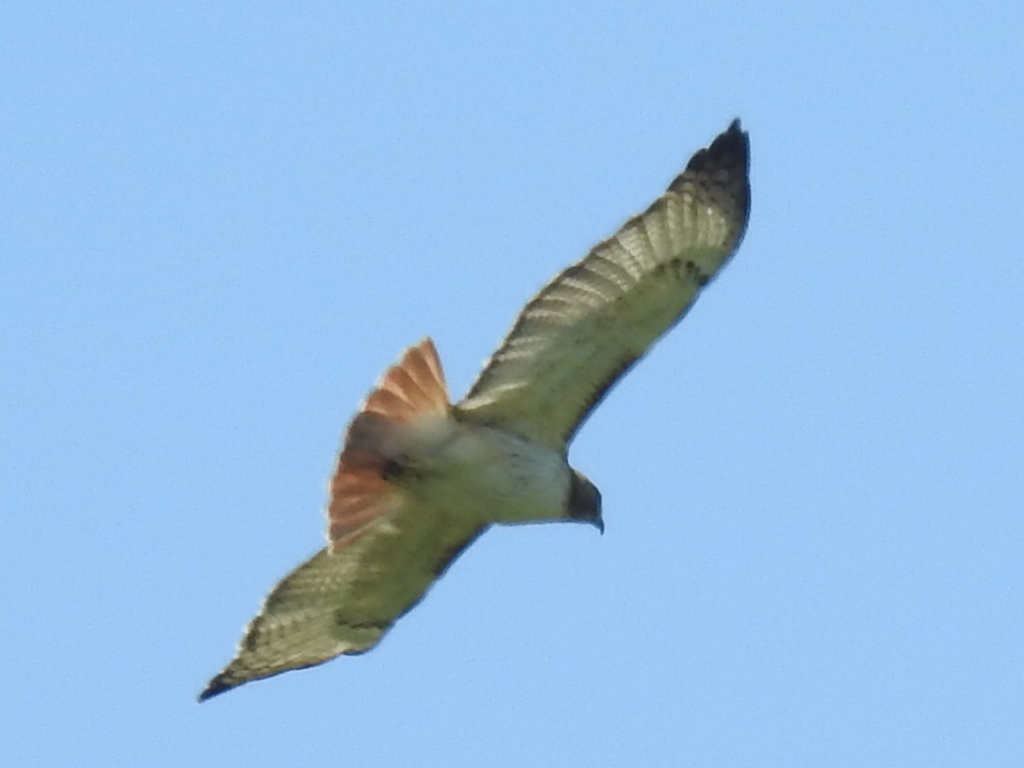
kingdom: Animalia
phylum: Chordata
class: Aves
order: Accipitriformes
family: Accipitridae
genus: Buteo
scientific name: Buteo jamaicensis
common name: Red-tailed hawk
